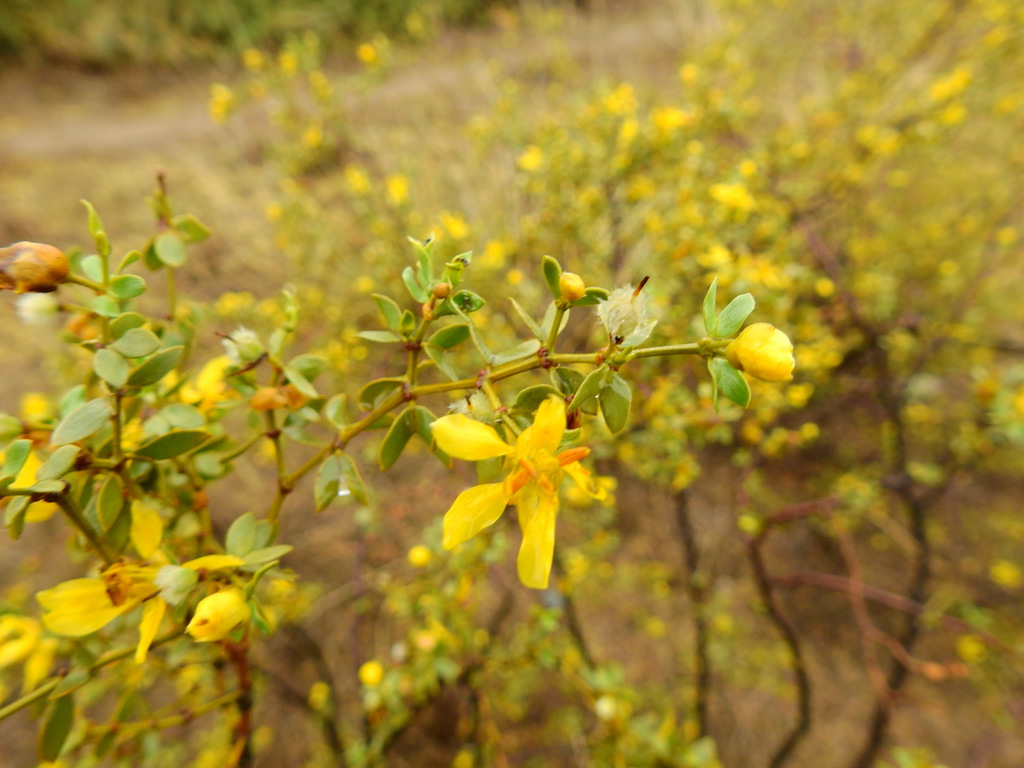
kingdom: Plantae
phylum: Tracheophyta
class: Magnoliopsida
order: Zygophyllales
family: Zygophyllaceae
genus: Larrea
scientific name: Larrea divaricata
